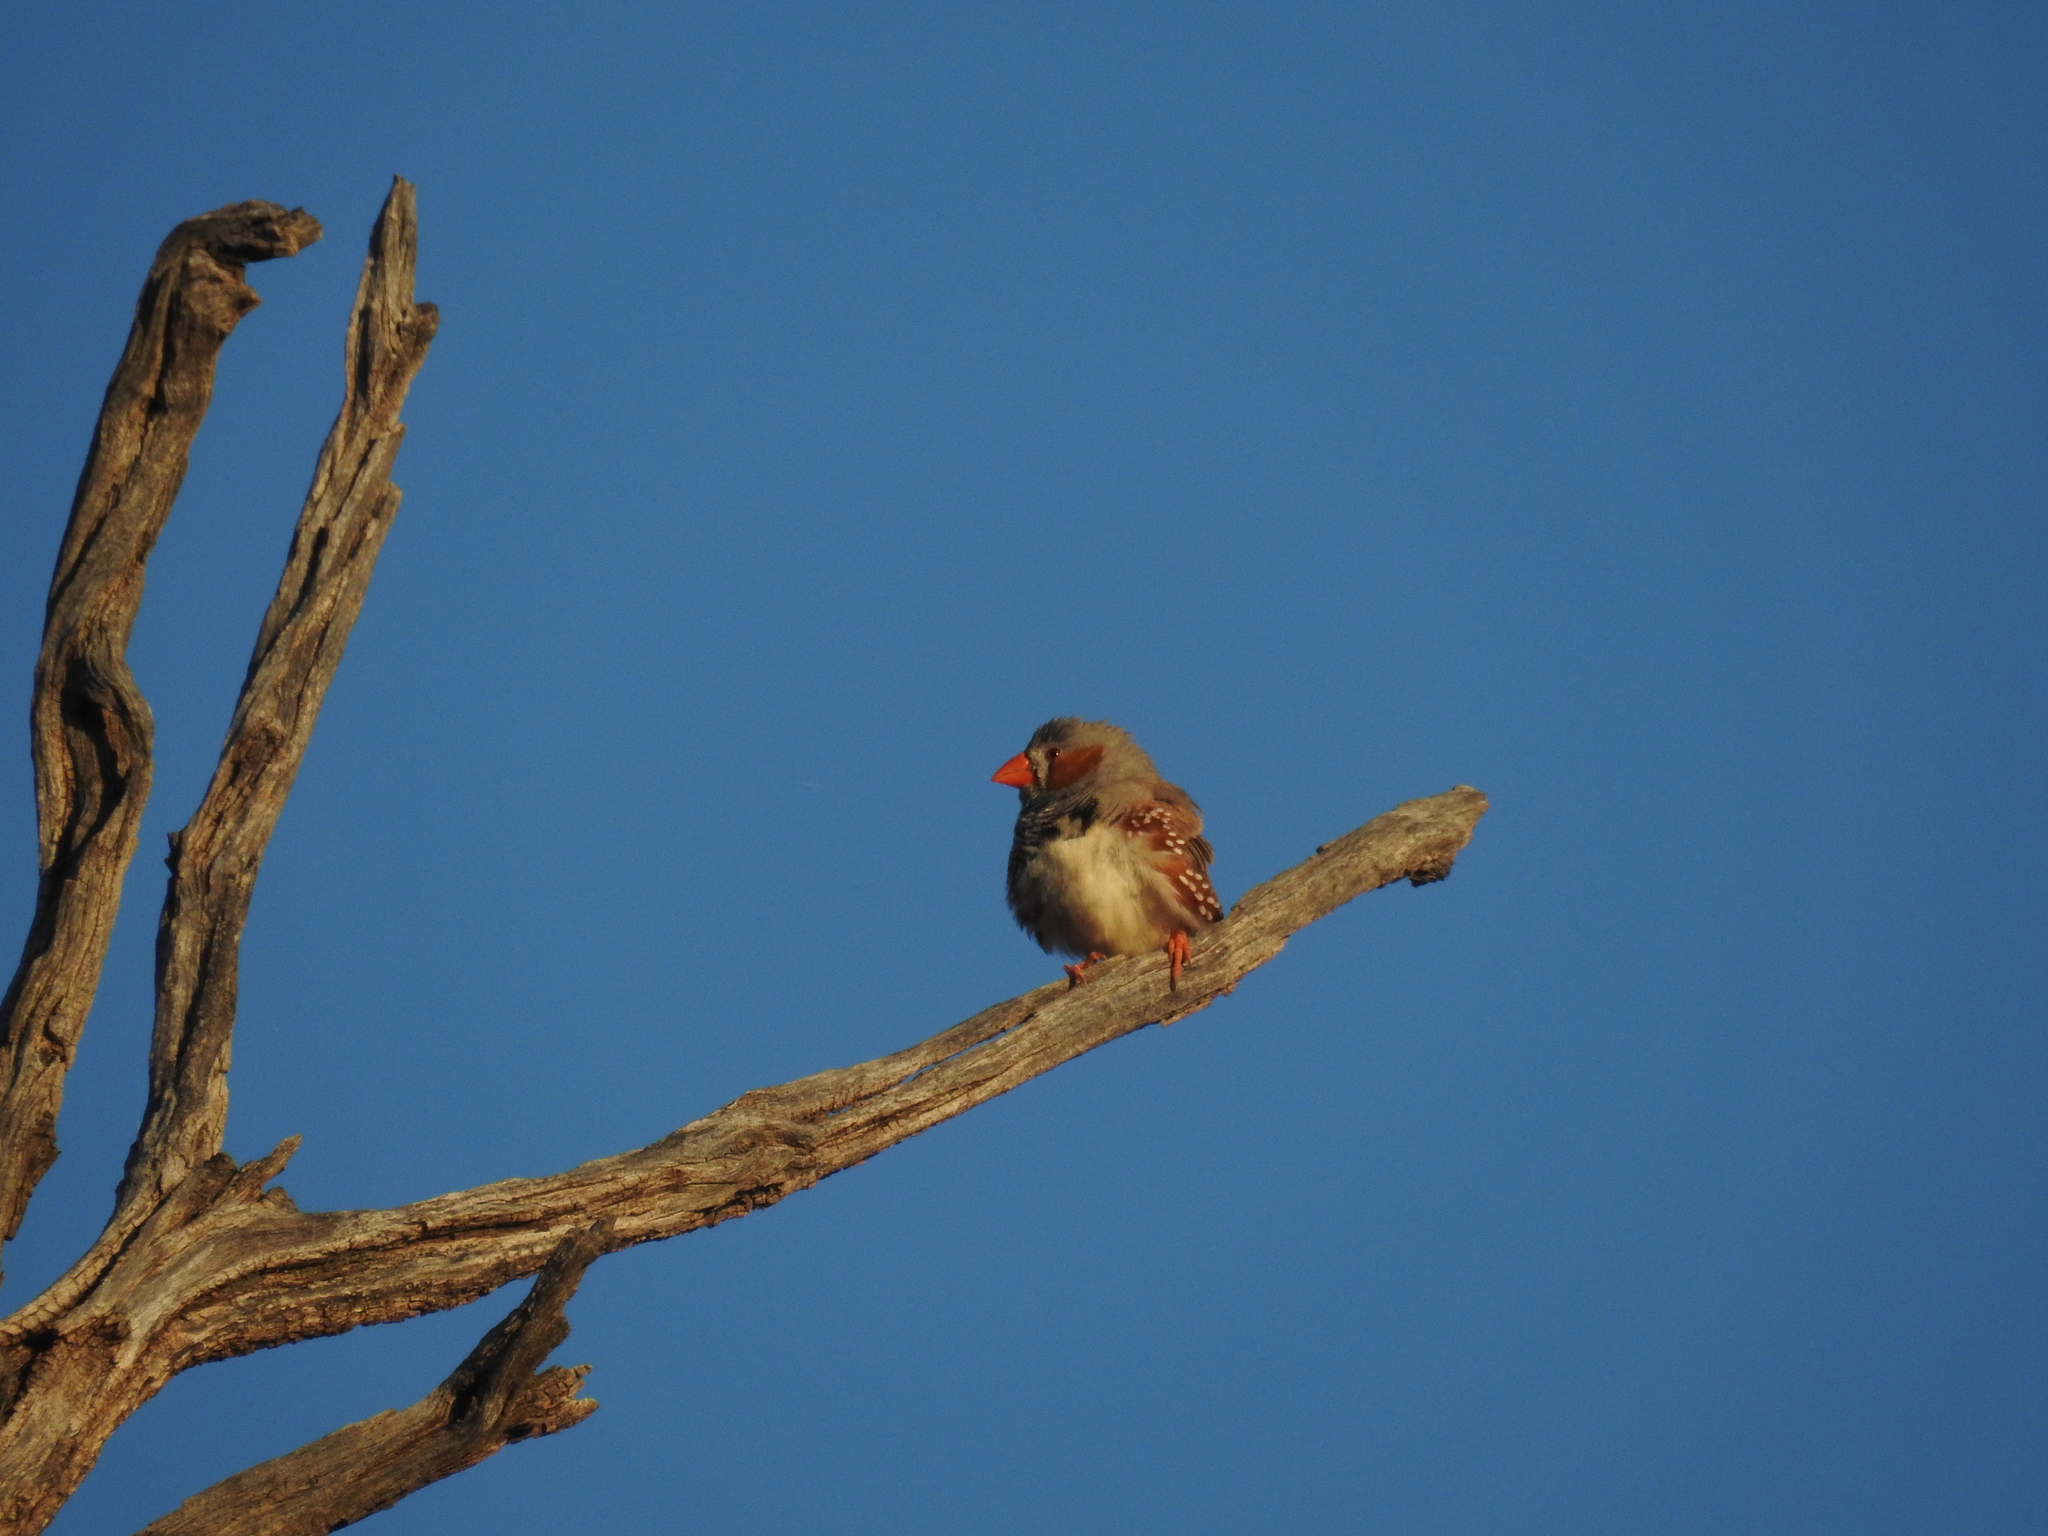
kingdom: Animalia
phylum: Chordata
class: Aves
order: Passeriformes
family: Estrildidae
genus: Taeniopygia
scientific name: Taeniopygia guttata
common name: Zebra finch
